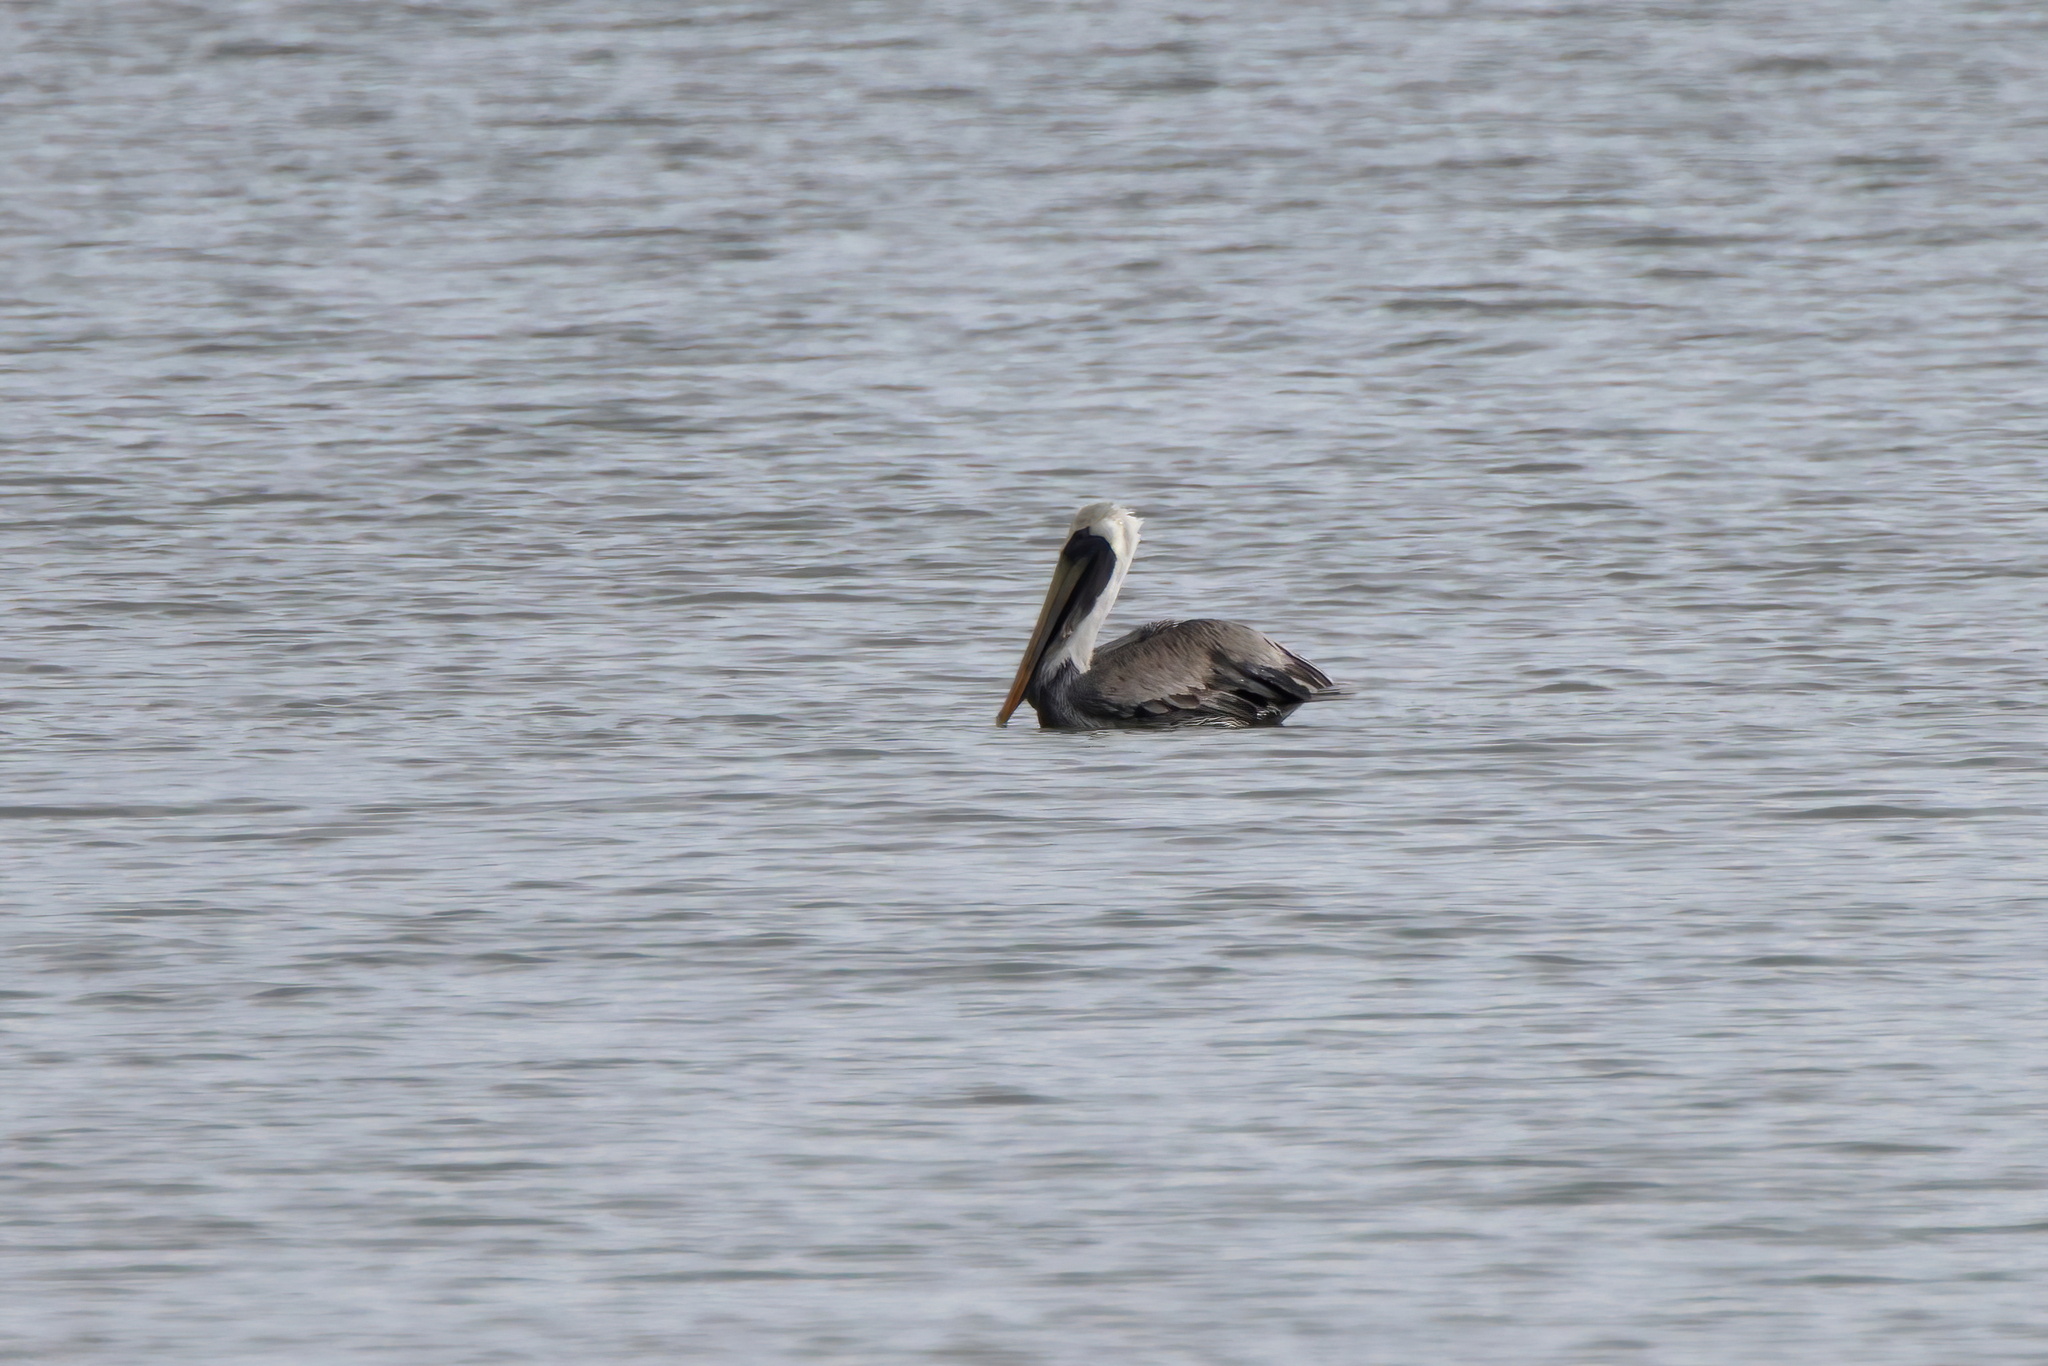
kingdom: Animalia
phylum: Chordata
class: Aves
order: Pelecaniformes
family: Pelecanidae
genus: Pelecanus
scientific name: Pelecanus occidentalis
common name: Brown pelican
